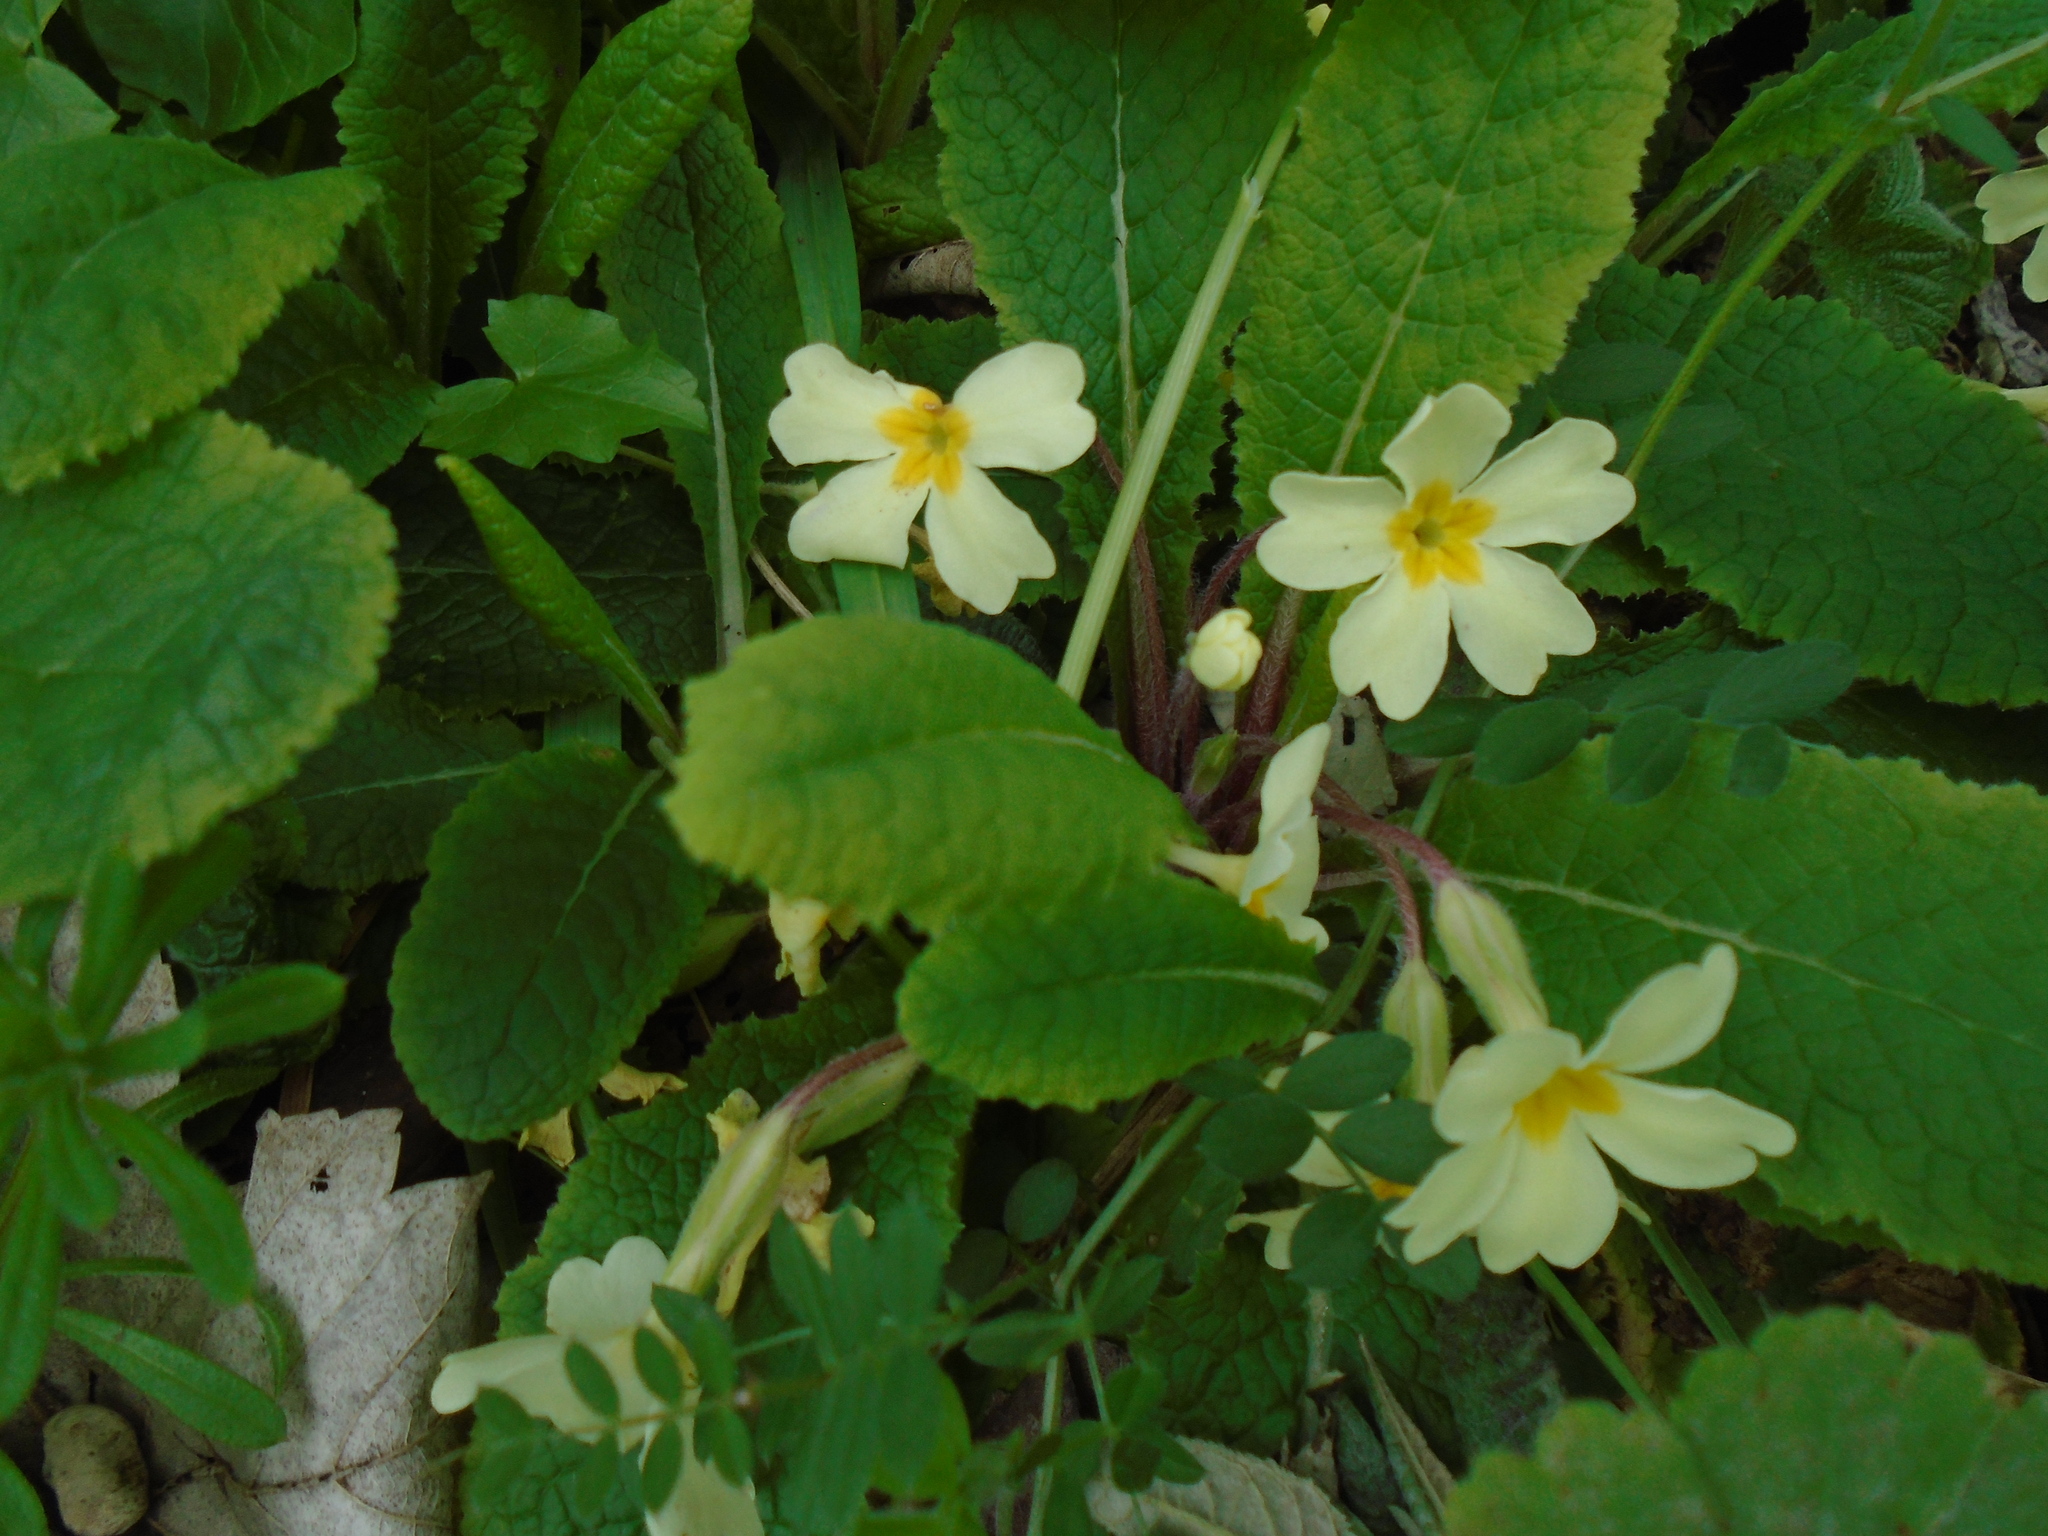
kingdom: Plantae
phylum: Tracheophyta
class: Magnoliopsida
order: Ericales
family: Primulaceae
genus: Primula
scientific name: Primula vulgaris
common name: Primrose
